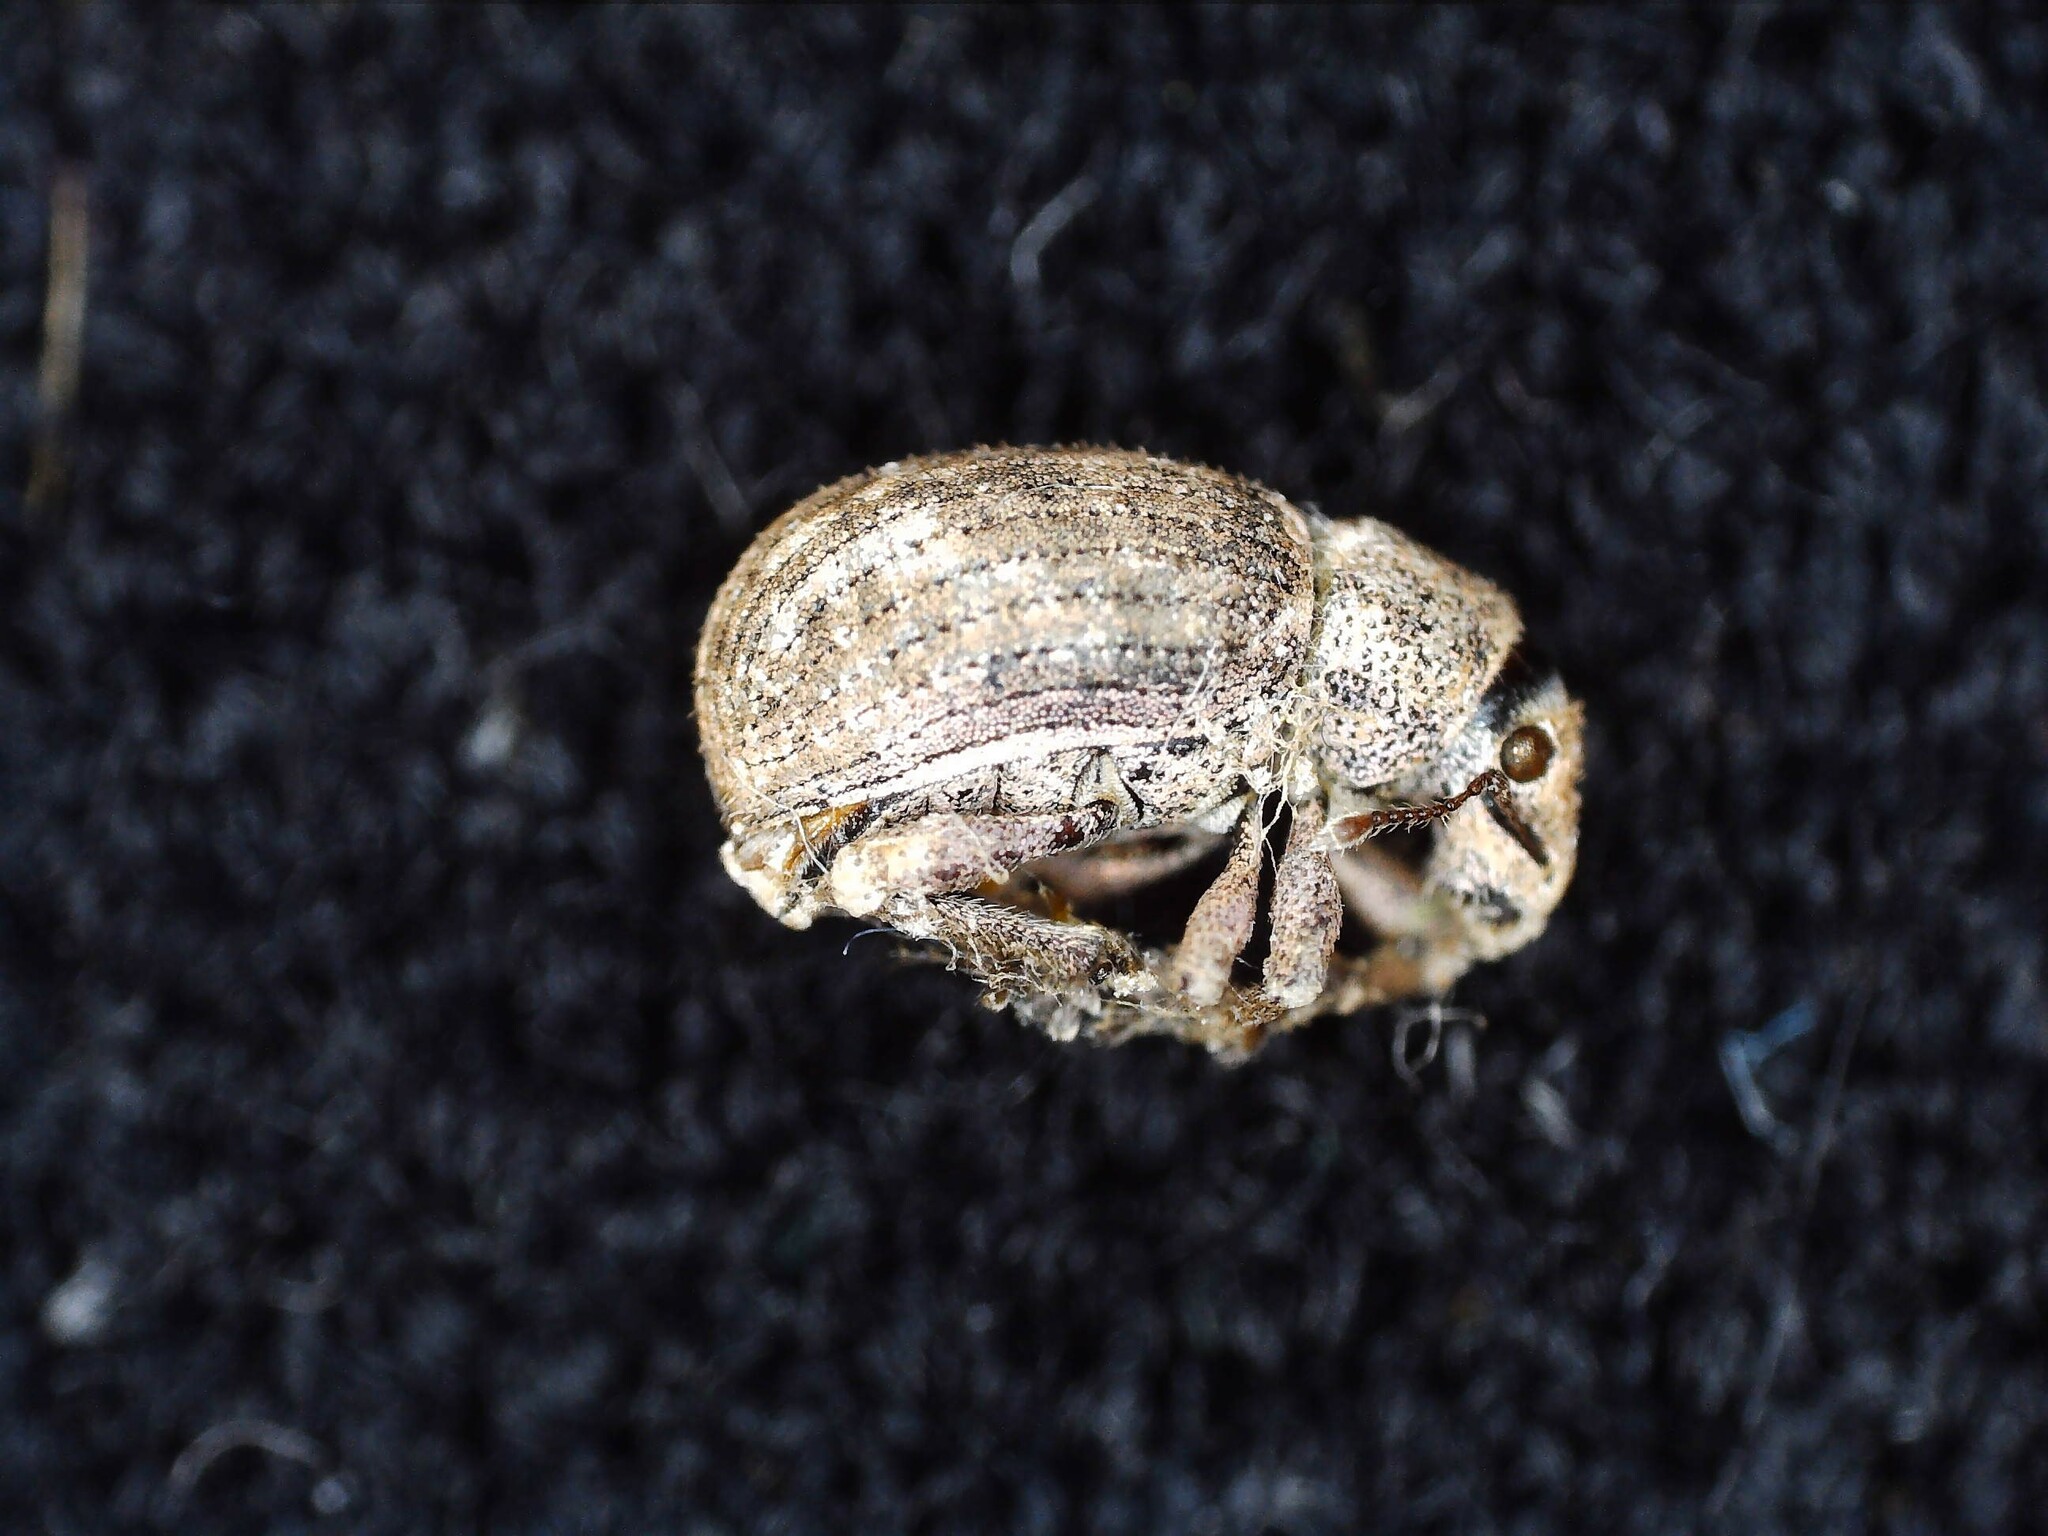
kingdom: Animalia
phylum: Arthropoda
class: Insecta
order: Coleoptera
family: Curculionidae
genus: Strophosoma
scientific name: Strophosoma capitatum
